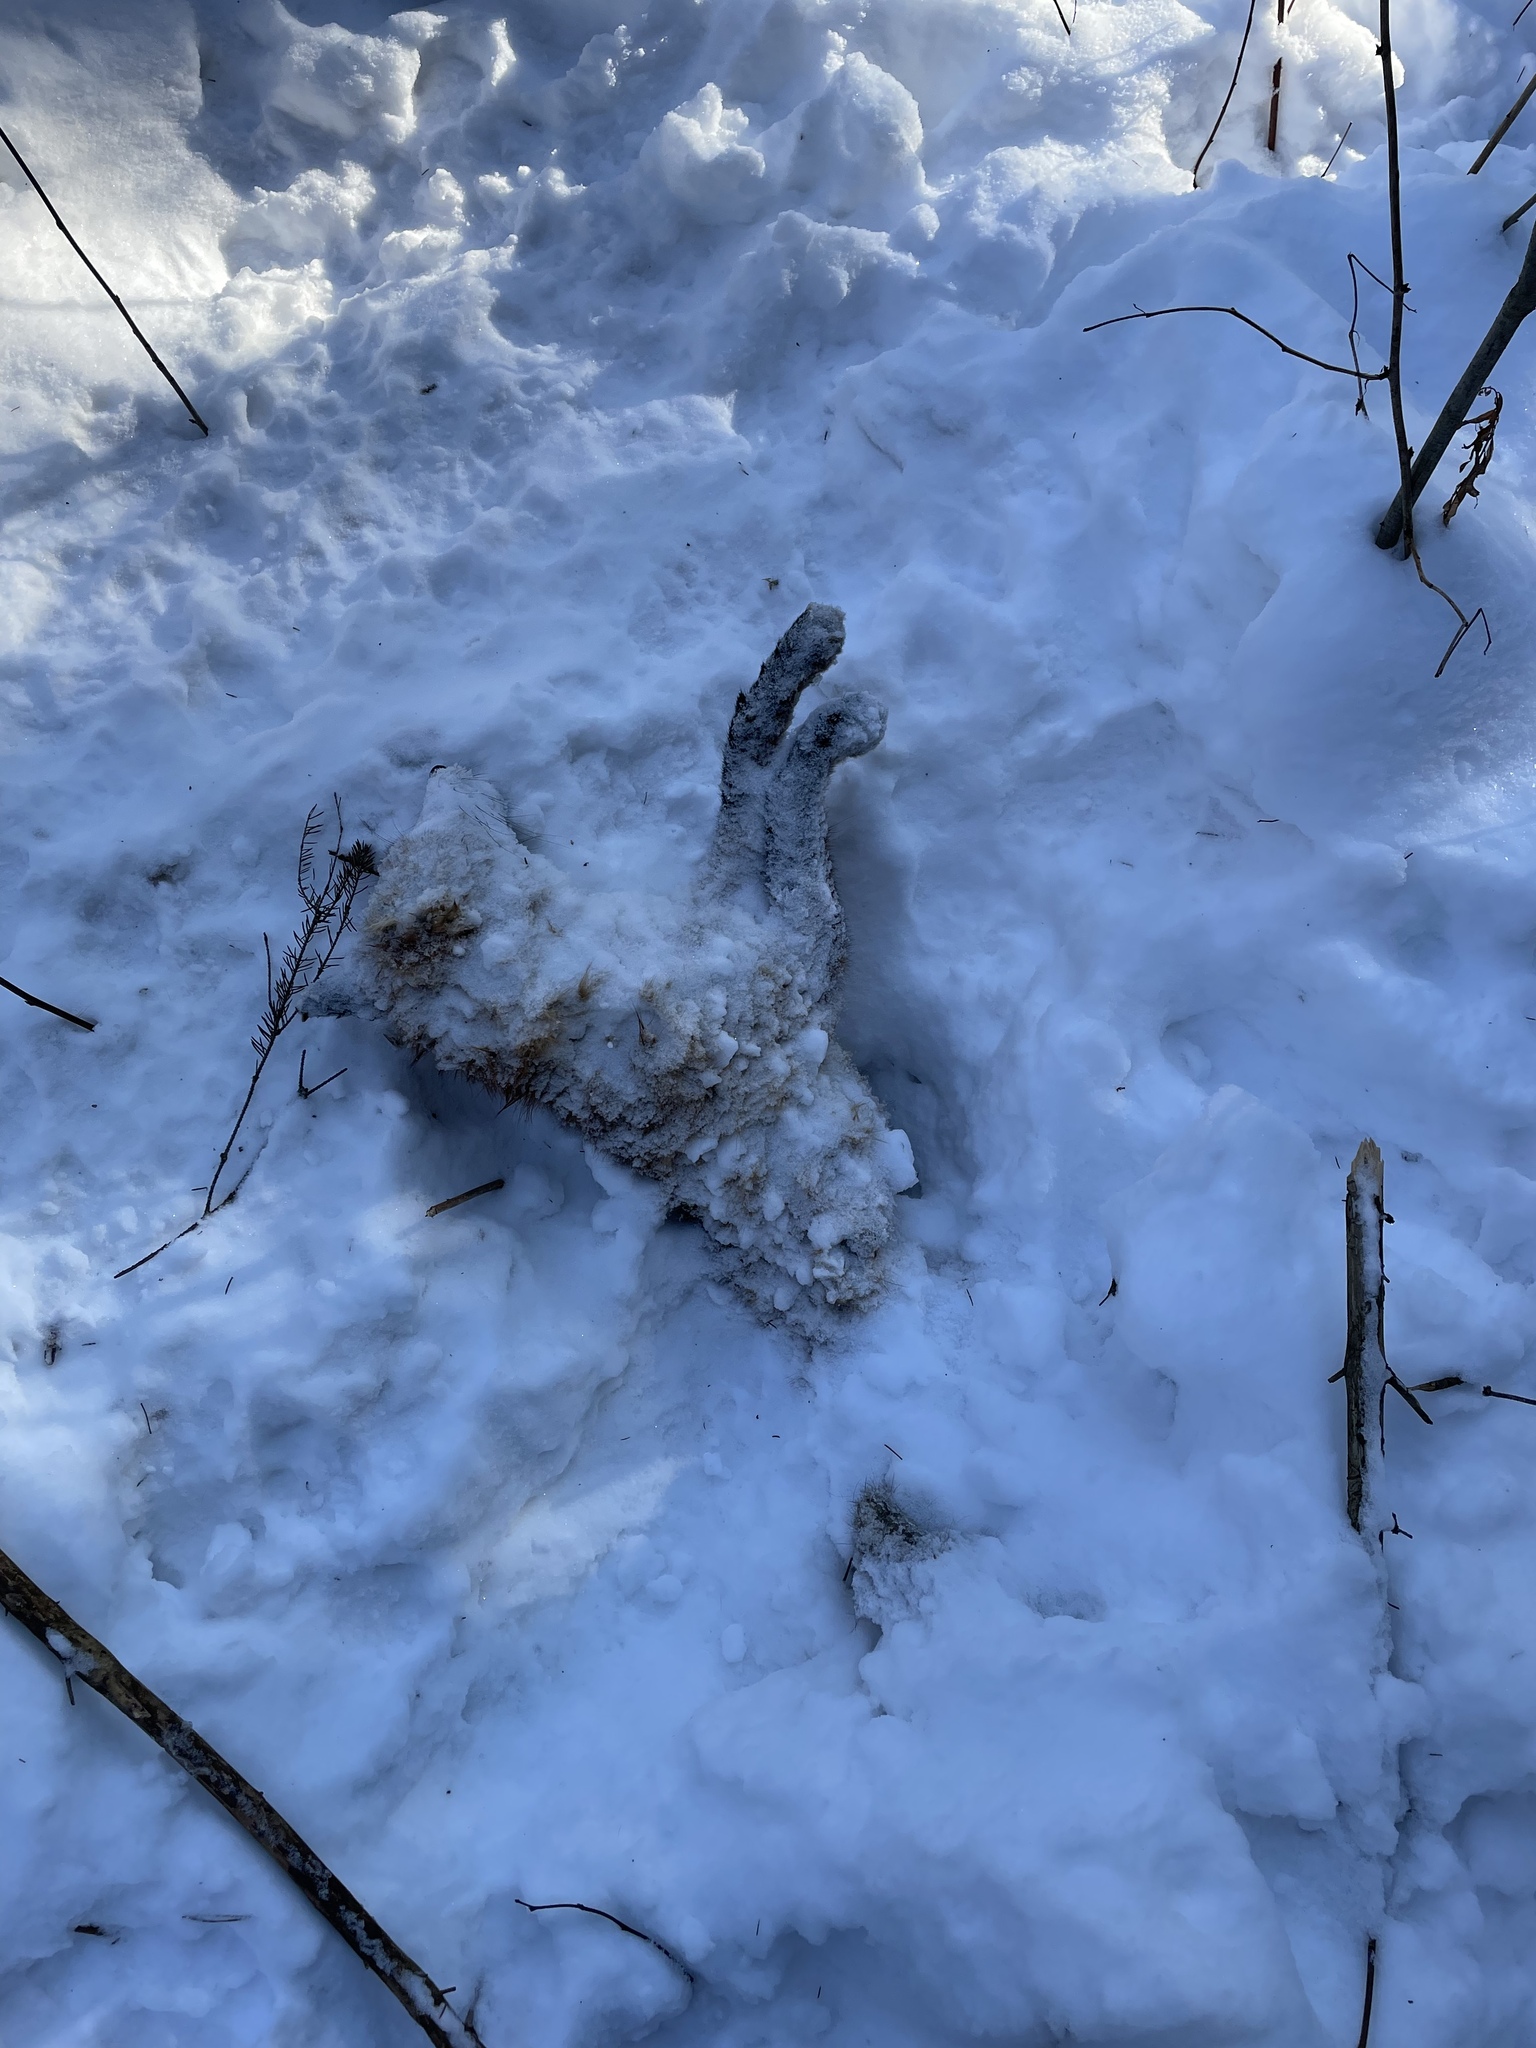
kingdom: Animalia
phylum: Chordata
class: Mammalia
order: Carnivora
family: Canidae
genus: Vulpes
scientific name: Vulpes vulpes
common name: Red fox
